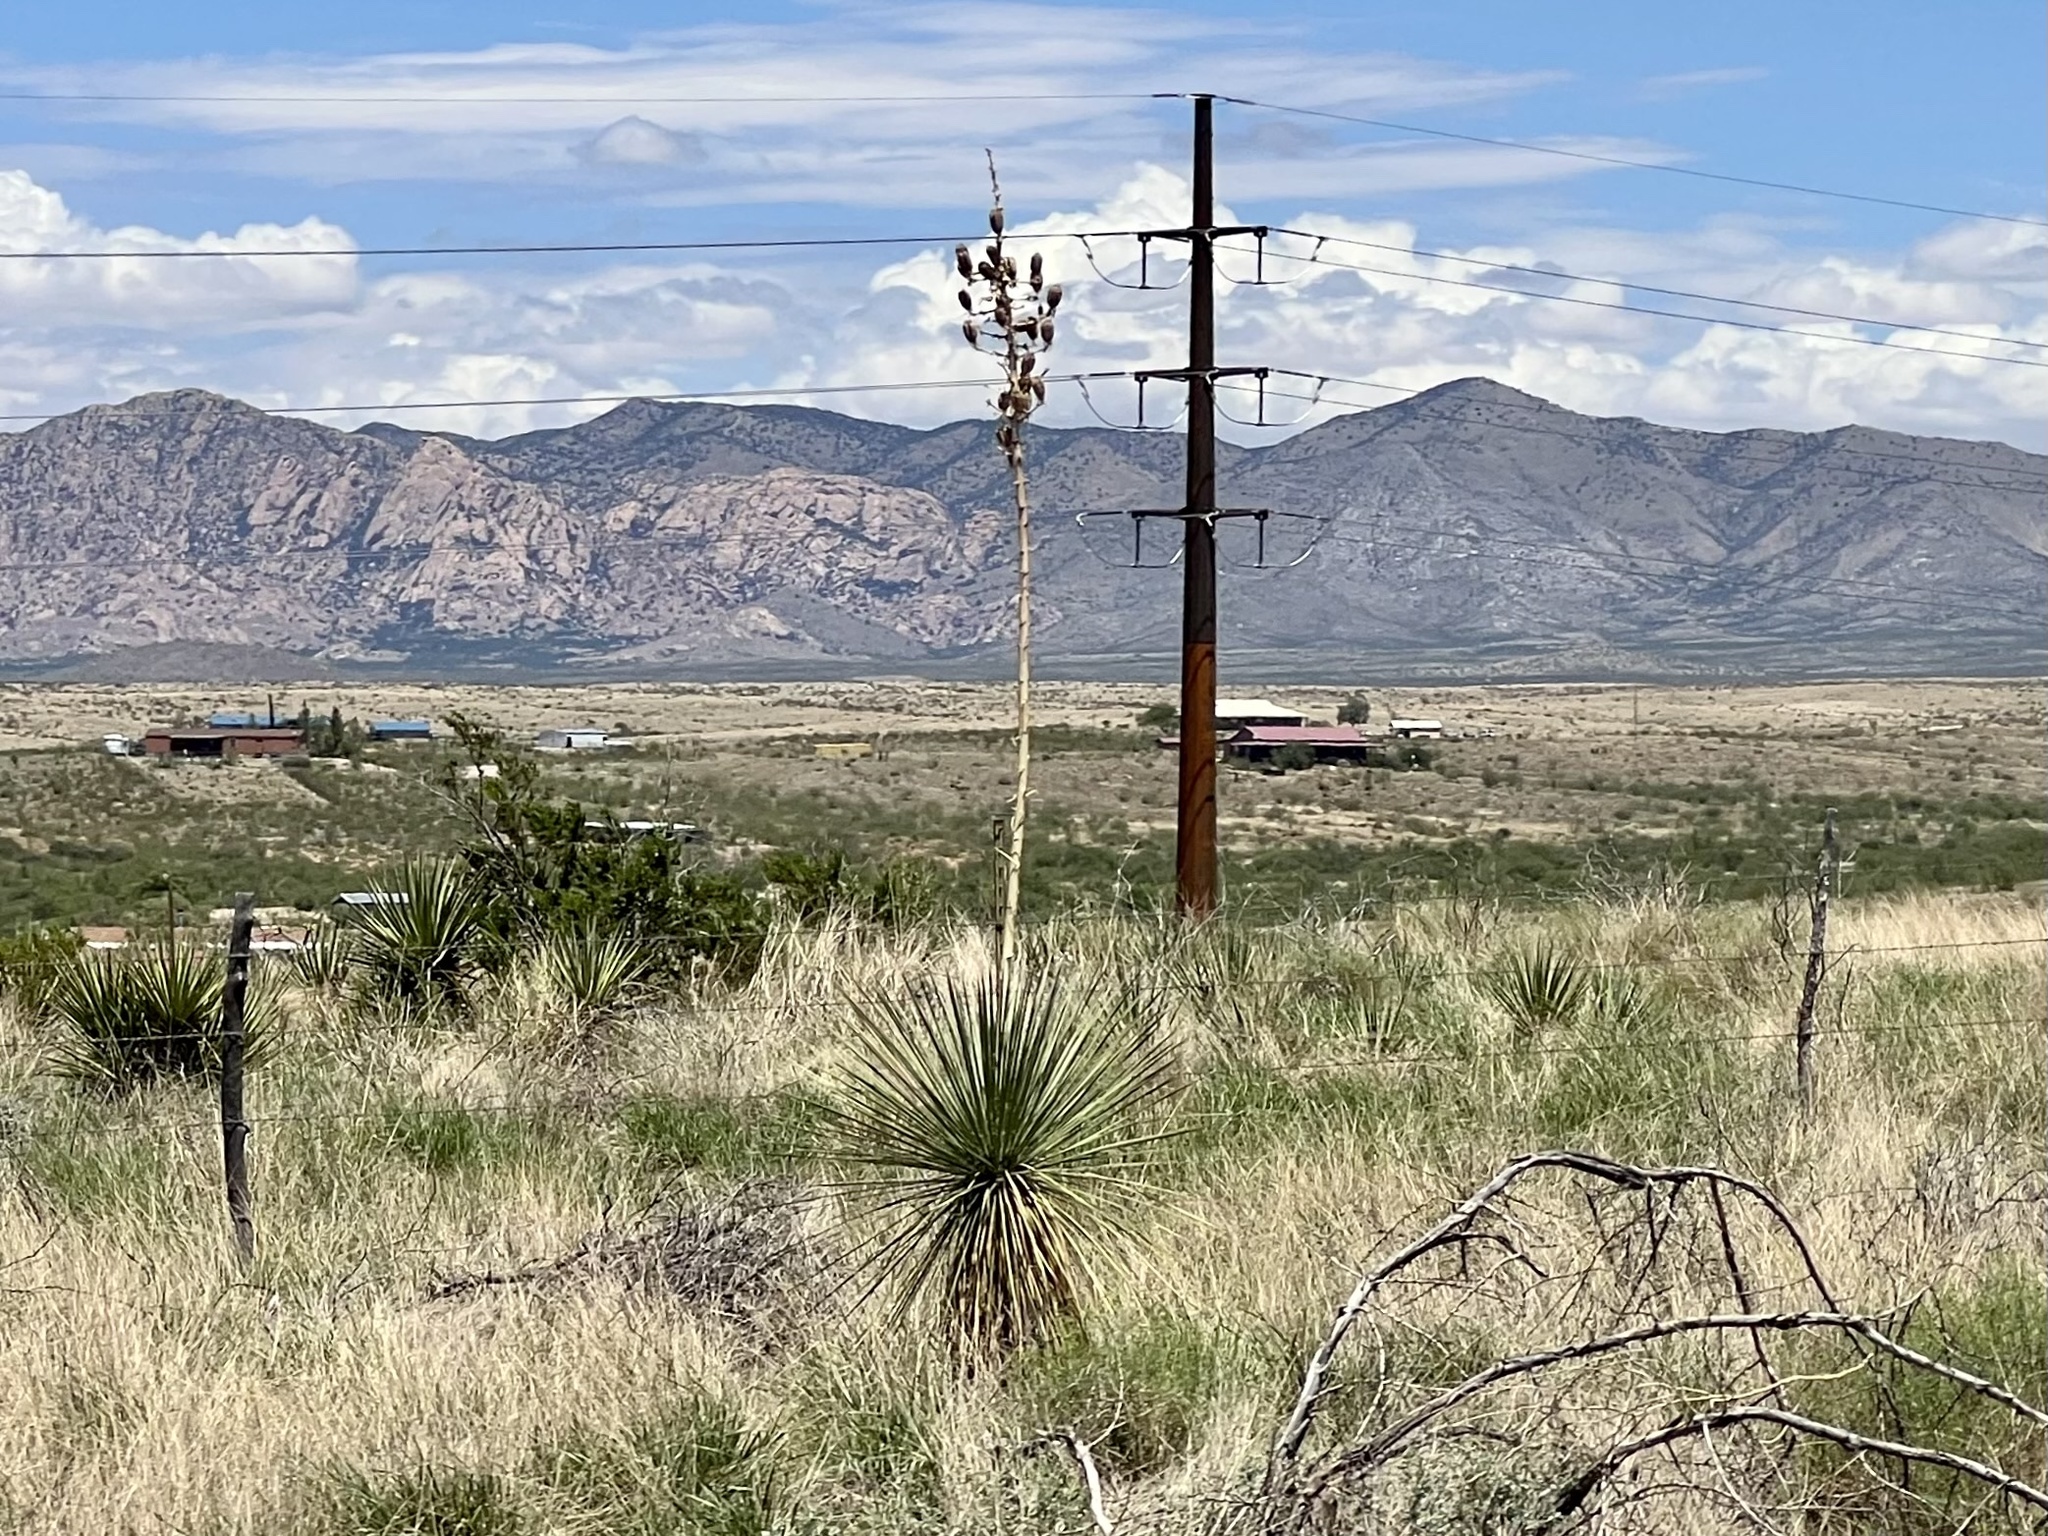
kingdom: Plantae
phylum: Tracheophyta
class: Liliopsida
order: Asparagales
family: Asparagaceae
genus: Yucca
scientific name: Yucca elata
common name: Palmella
